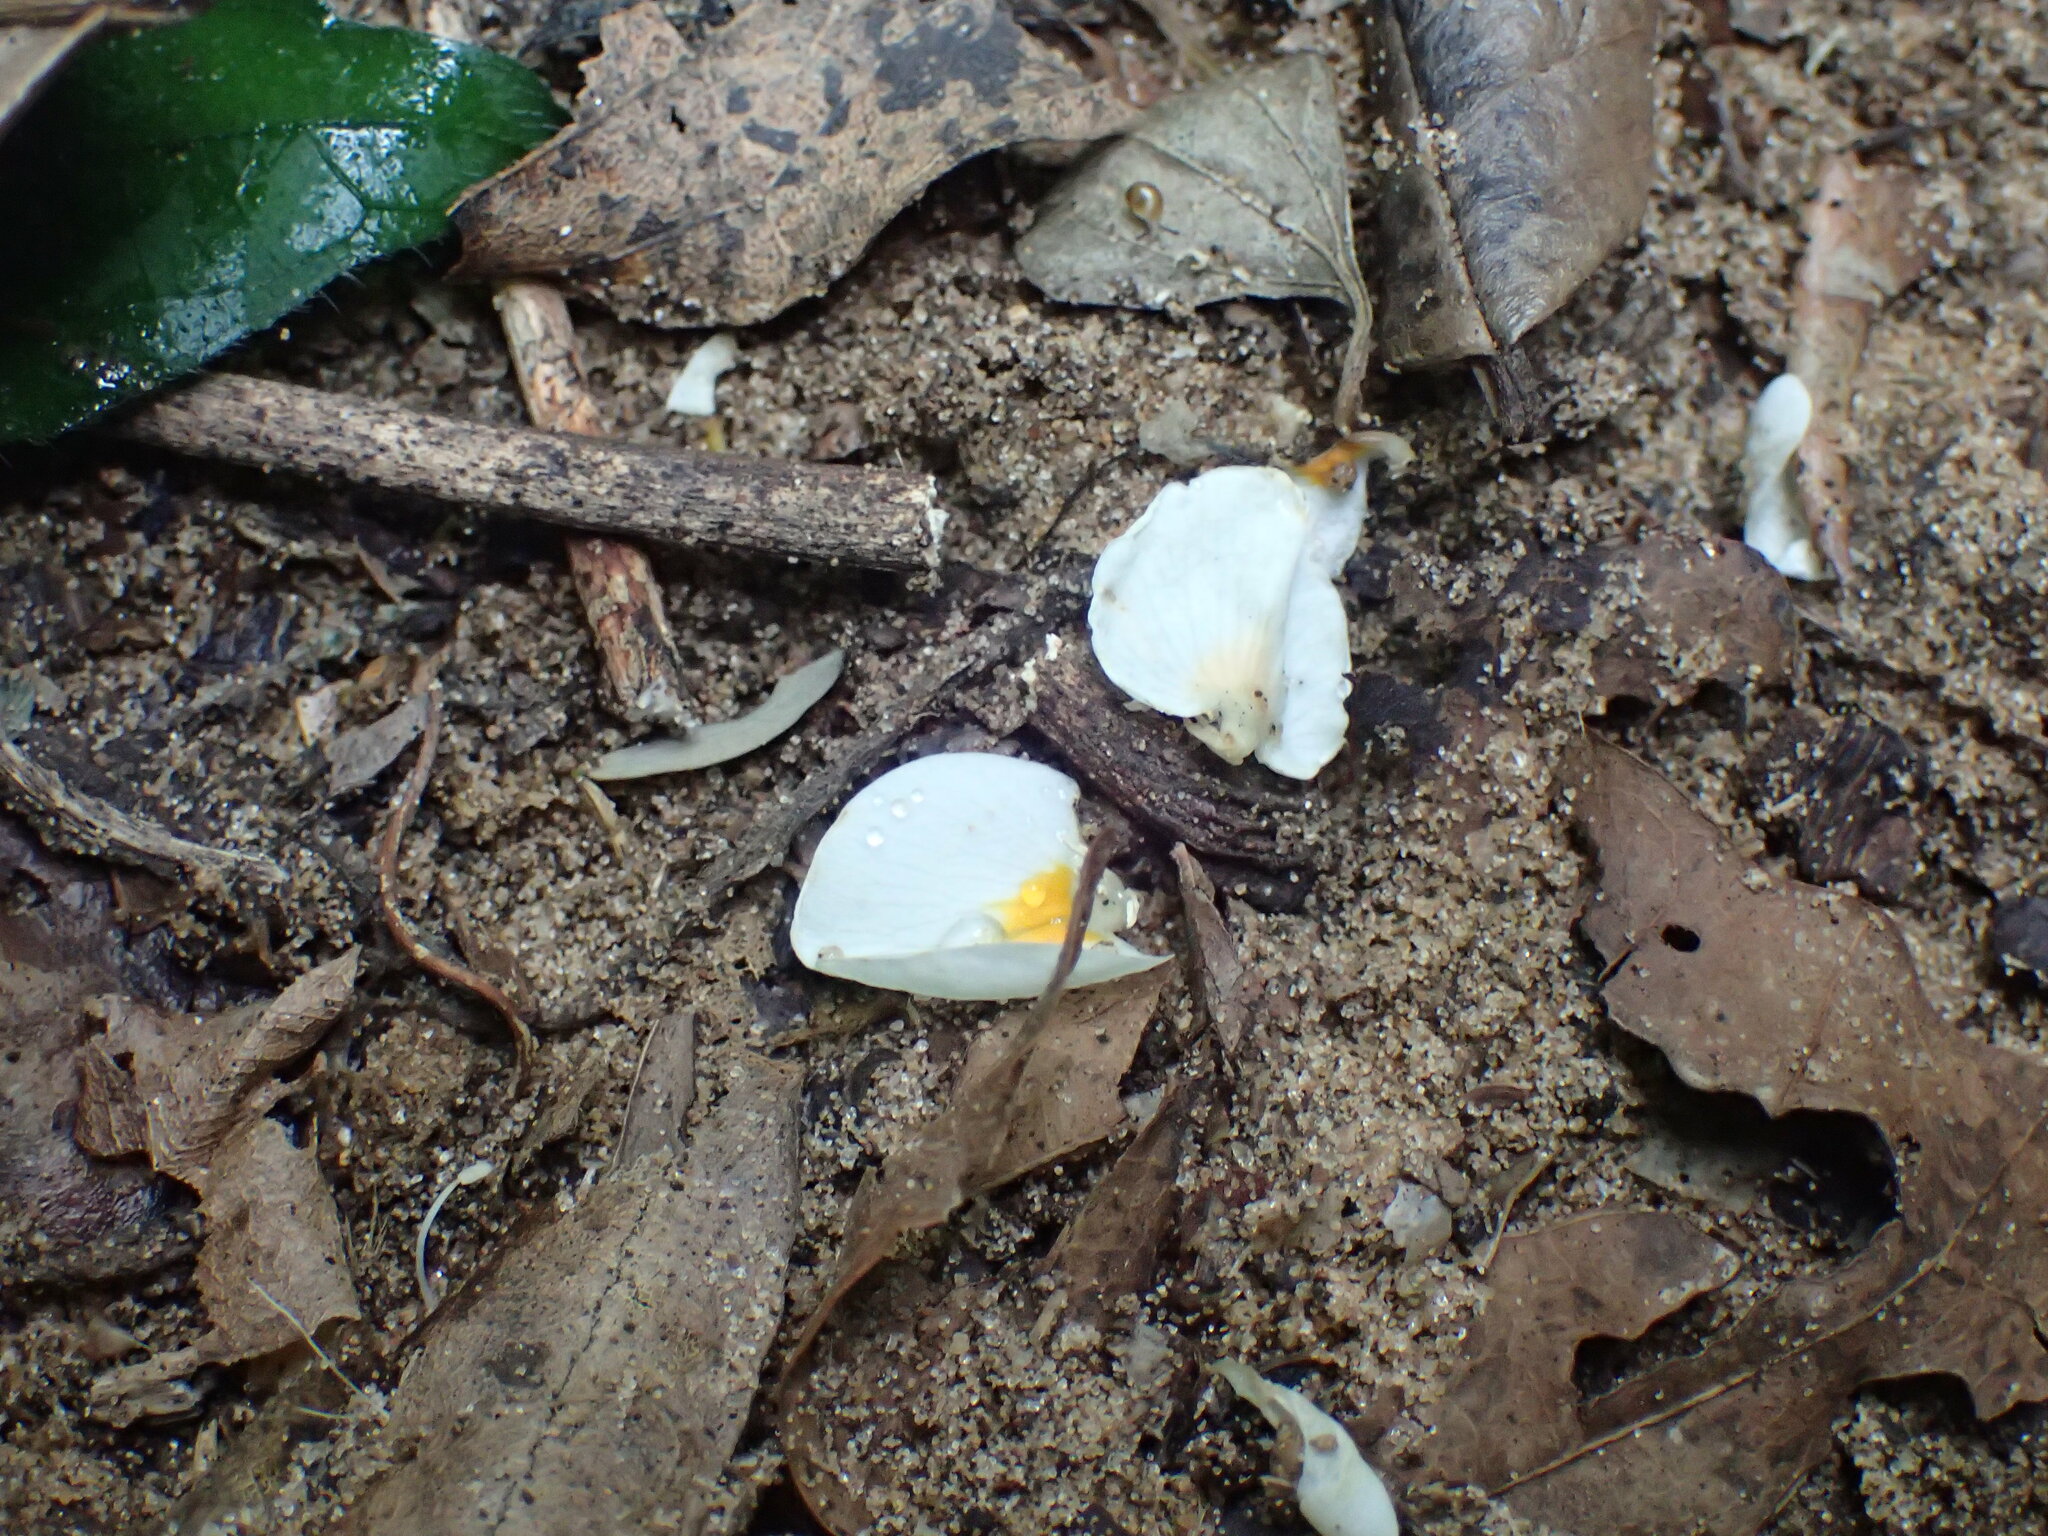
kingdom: Plantae
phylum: Tracheophyta
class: Magnoliopsida
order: Fabales
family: Fabaceae
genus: Bracteolaria
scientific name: Bracteolaria racemosa
